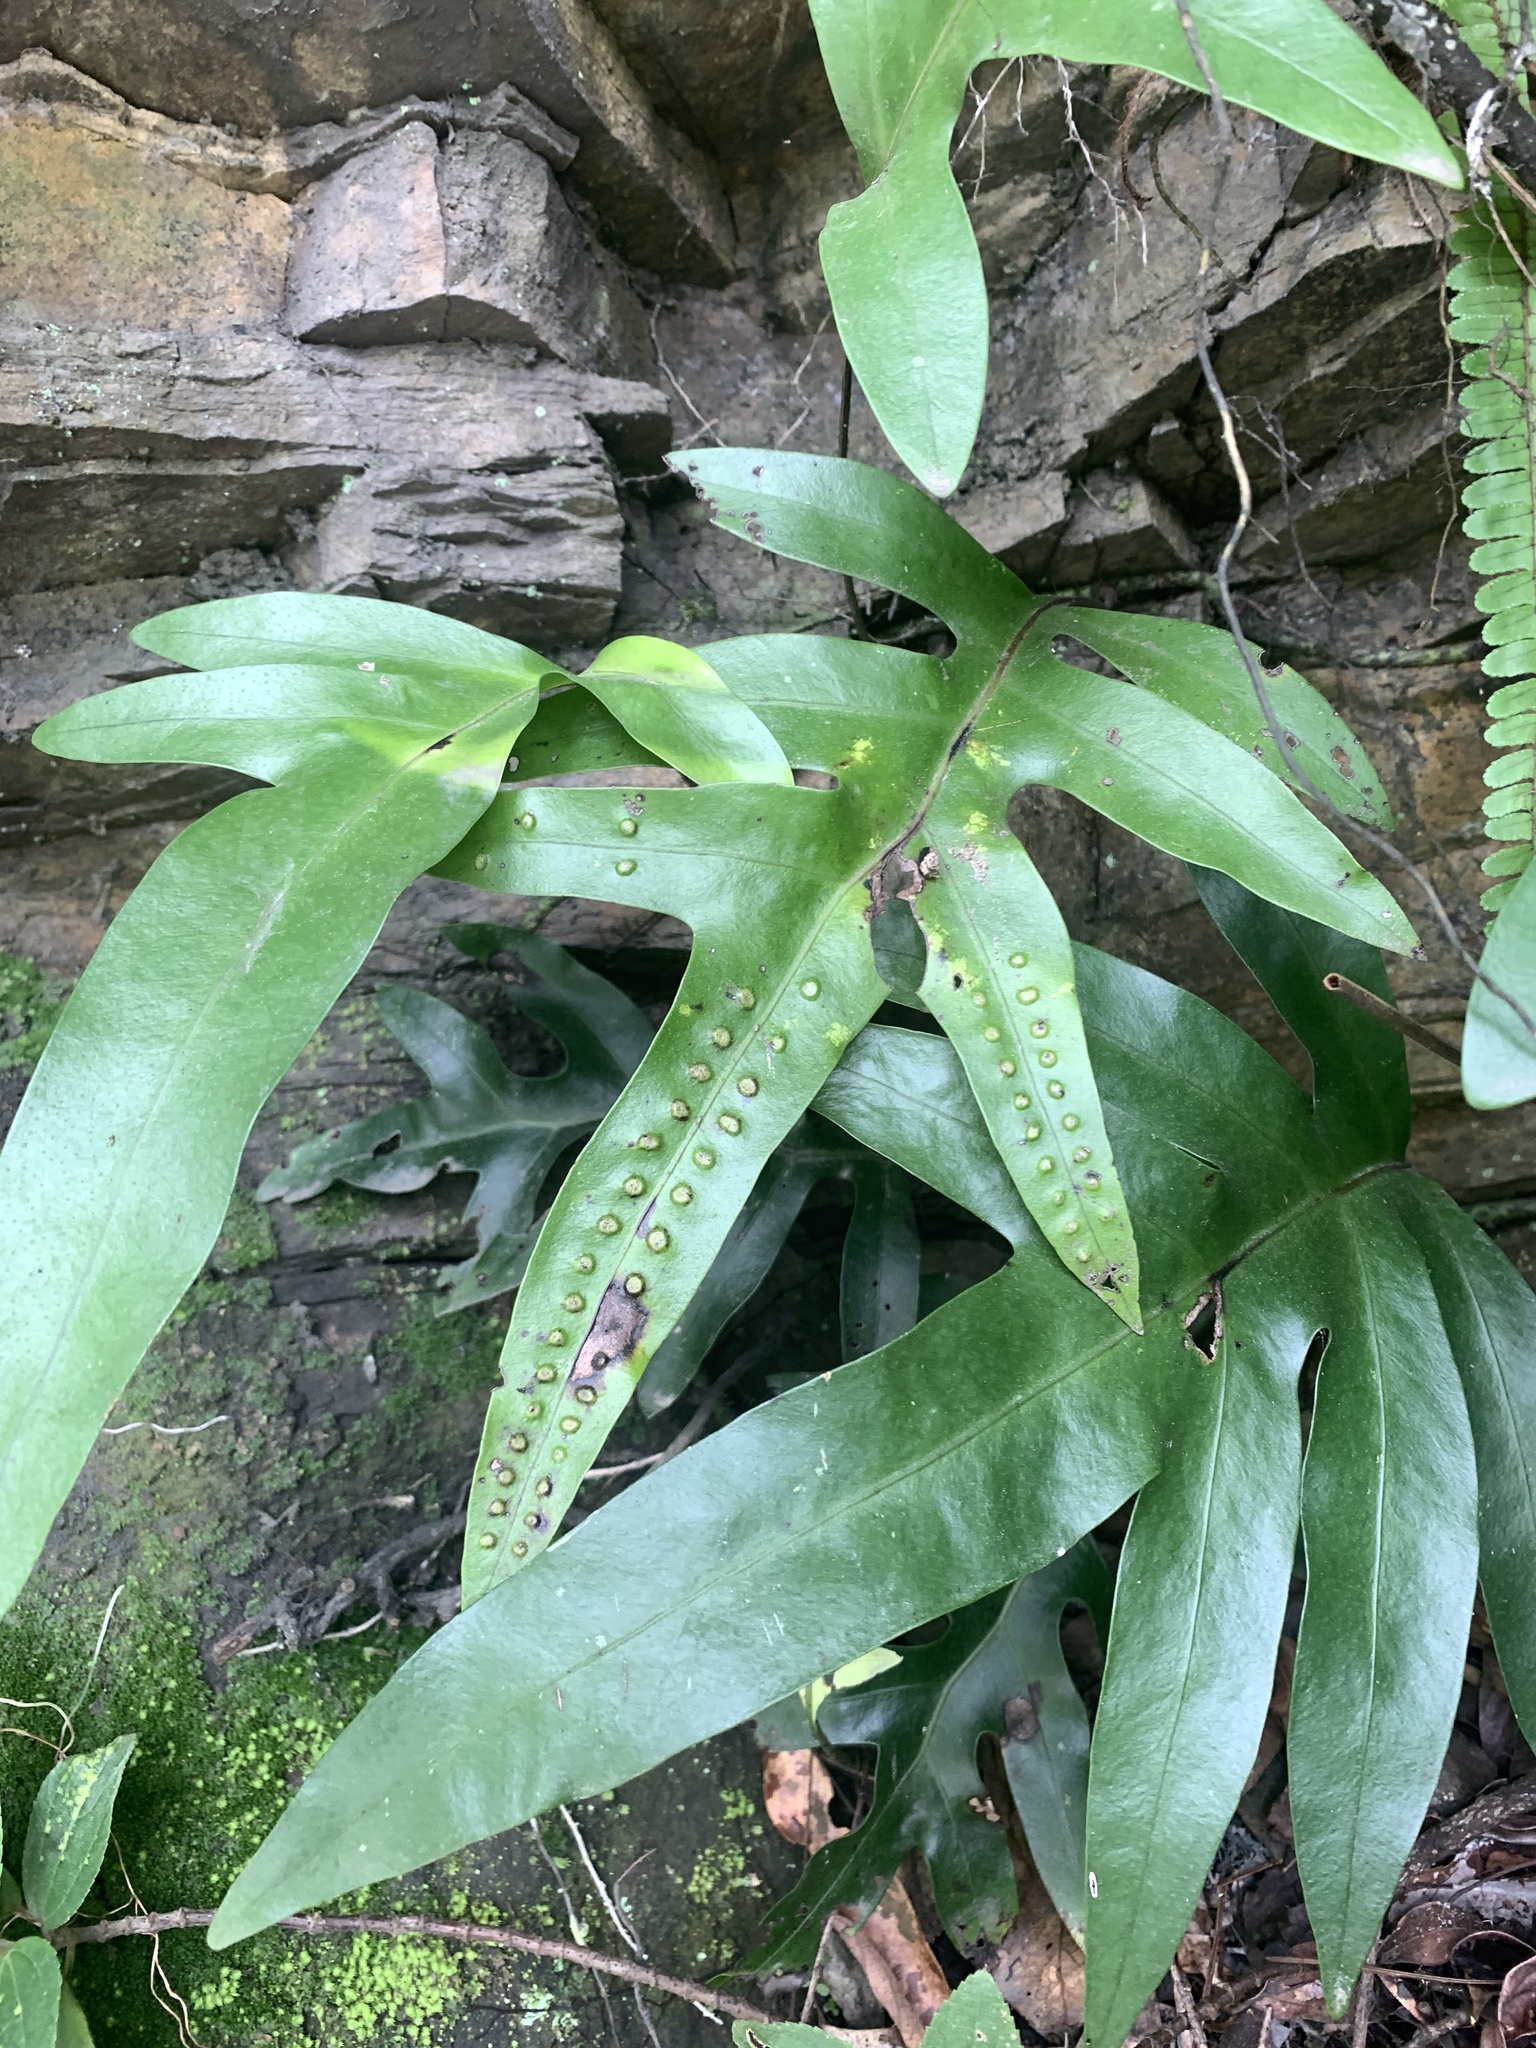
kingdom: Plantae
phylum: Tracheophyta
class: Polypodiopsida
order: Polypodiales
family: Polypodiaceae
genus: Microsorum
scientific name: Microsorum scolopendria
